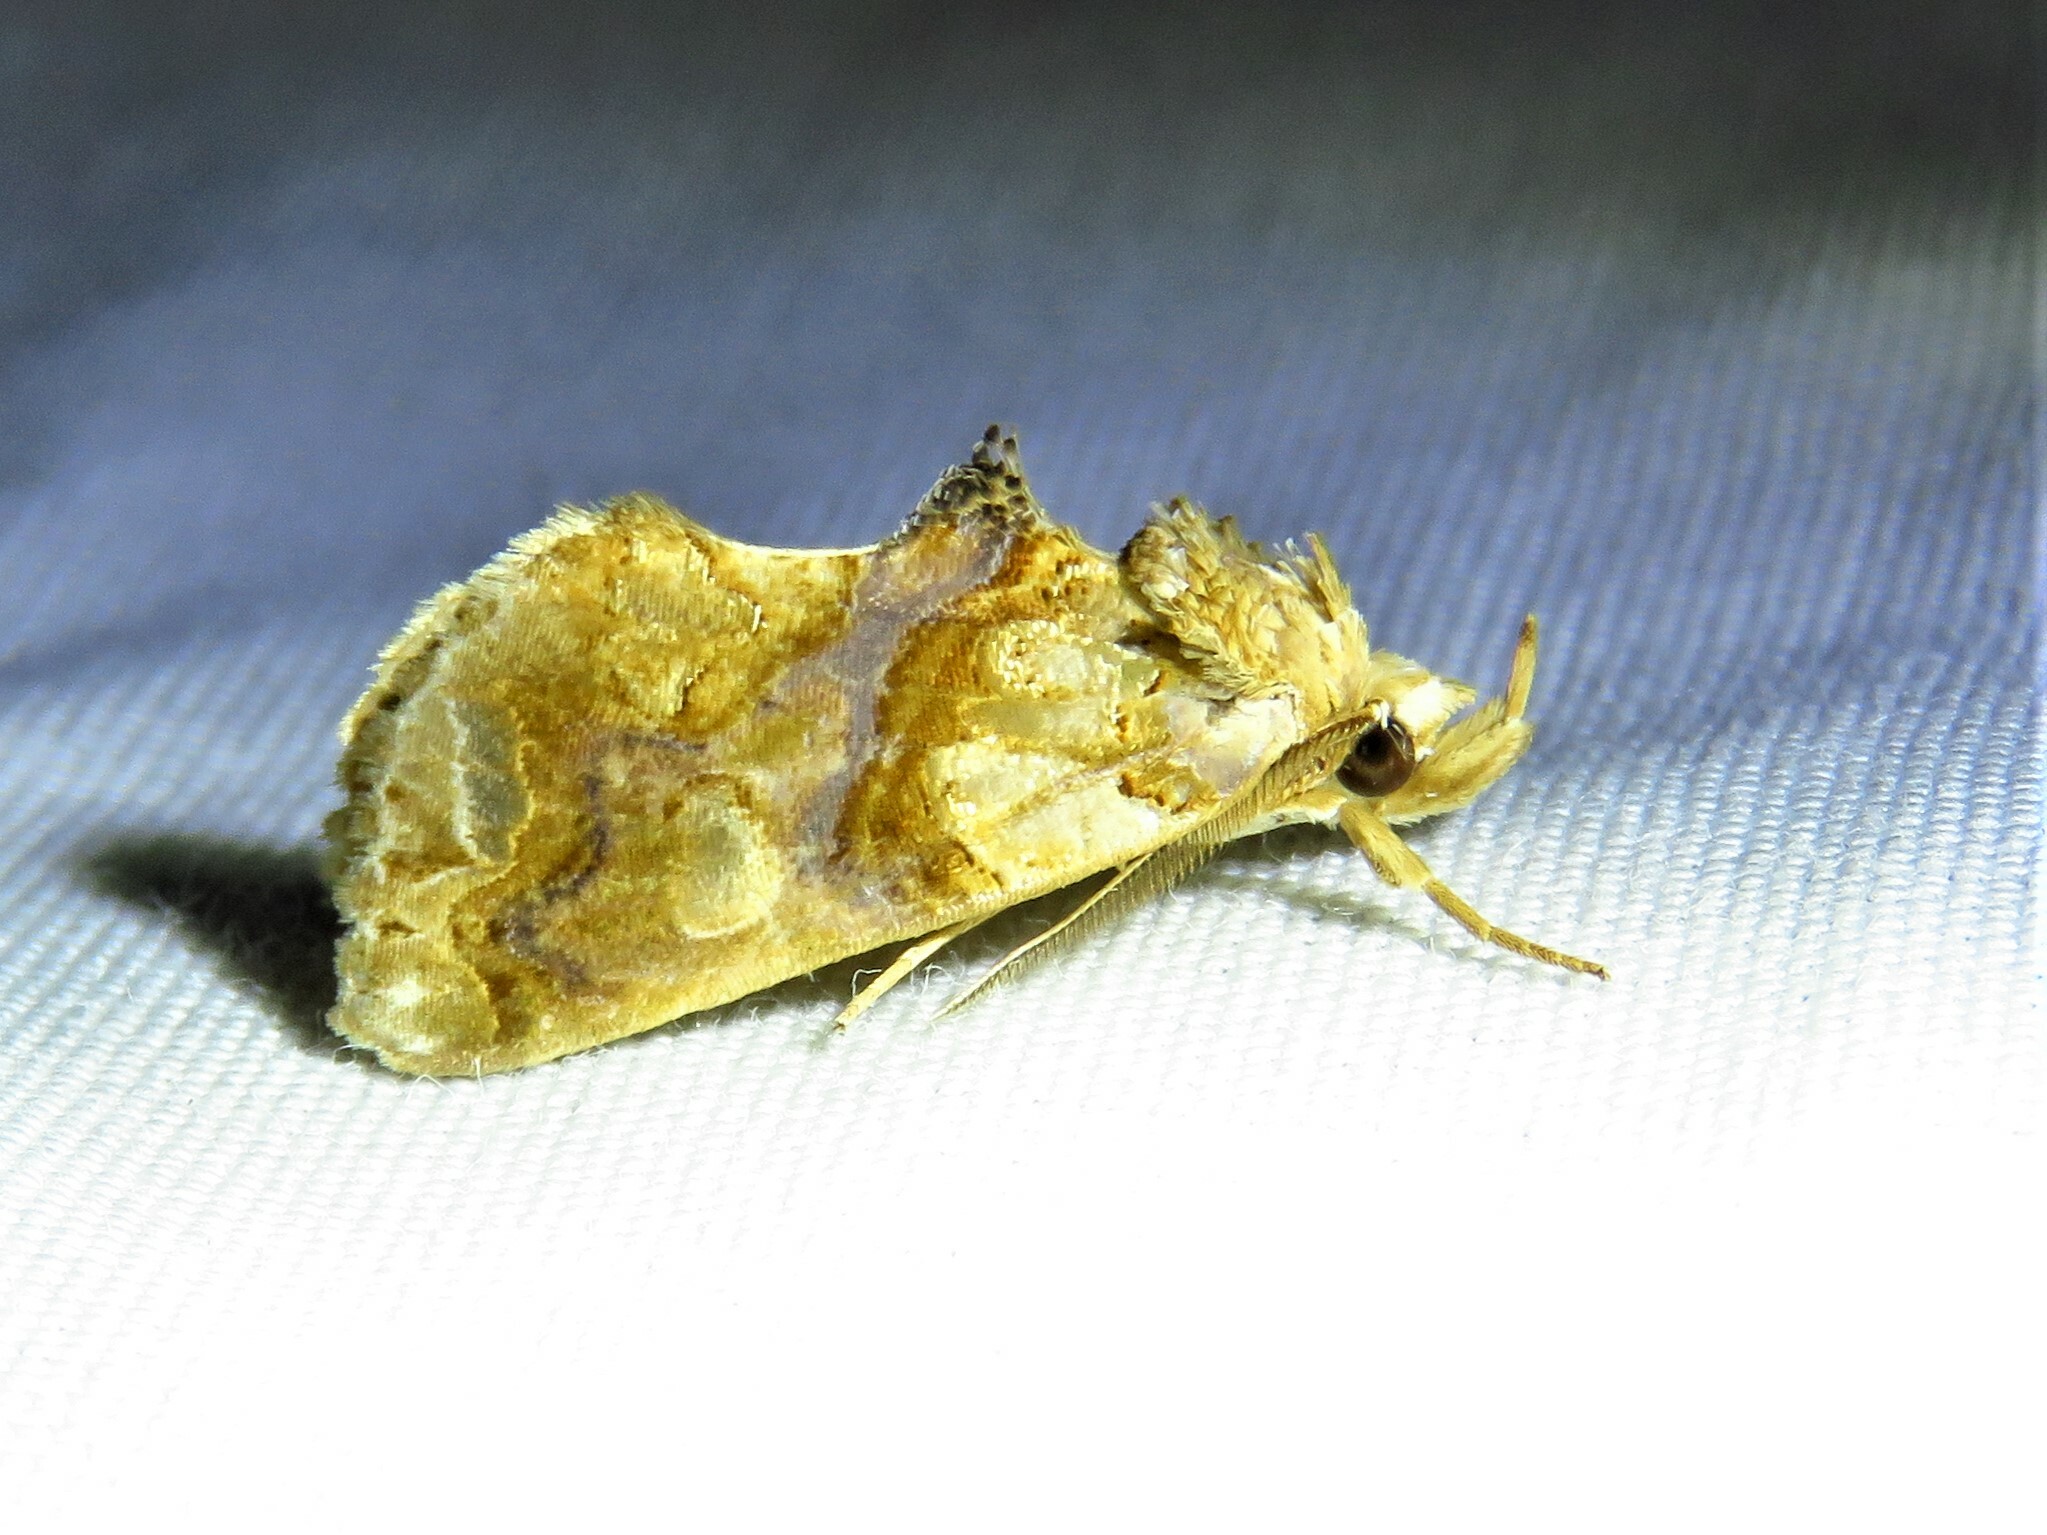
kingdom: Animalia
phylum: Arthropoda
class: Insecta
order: Lepidoptera
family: Erebidae
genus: Plusiodonta
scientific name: Plusiodonta compressipalpis
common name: Moonseed moth
